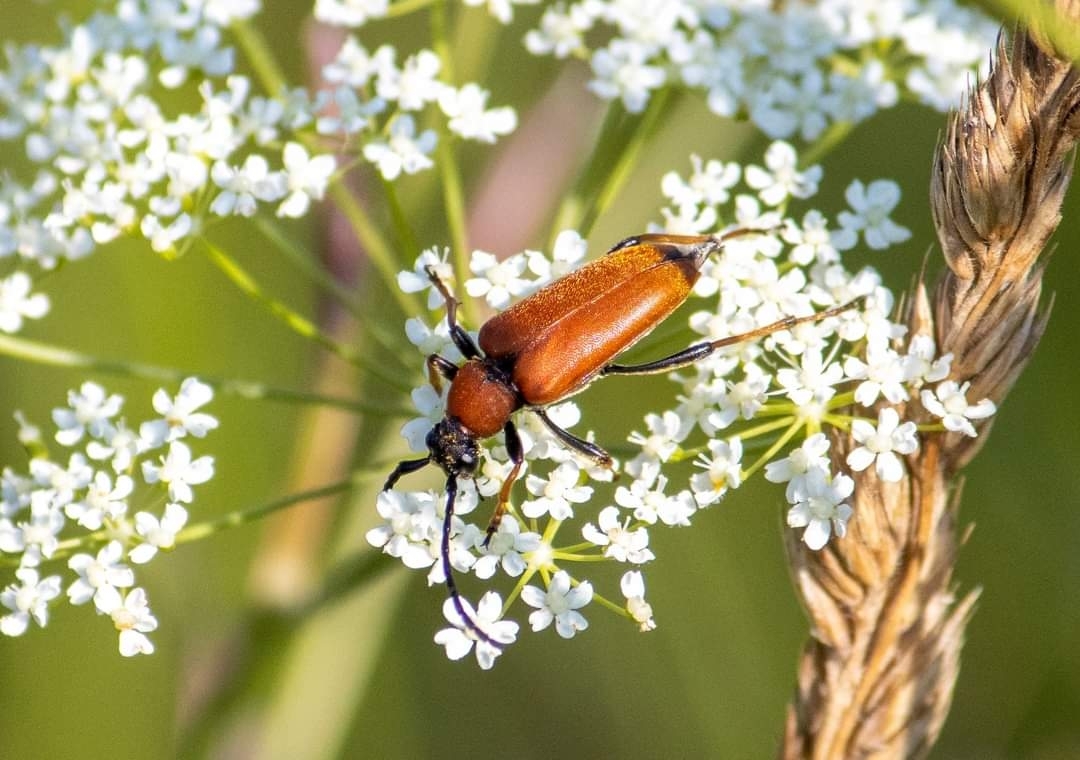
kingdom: Animalia
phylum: Arthropoda
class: Insecta
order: Coleoptera
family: Cerambycidae
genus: Stictoleptura
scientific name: Stictoleptura rubra
